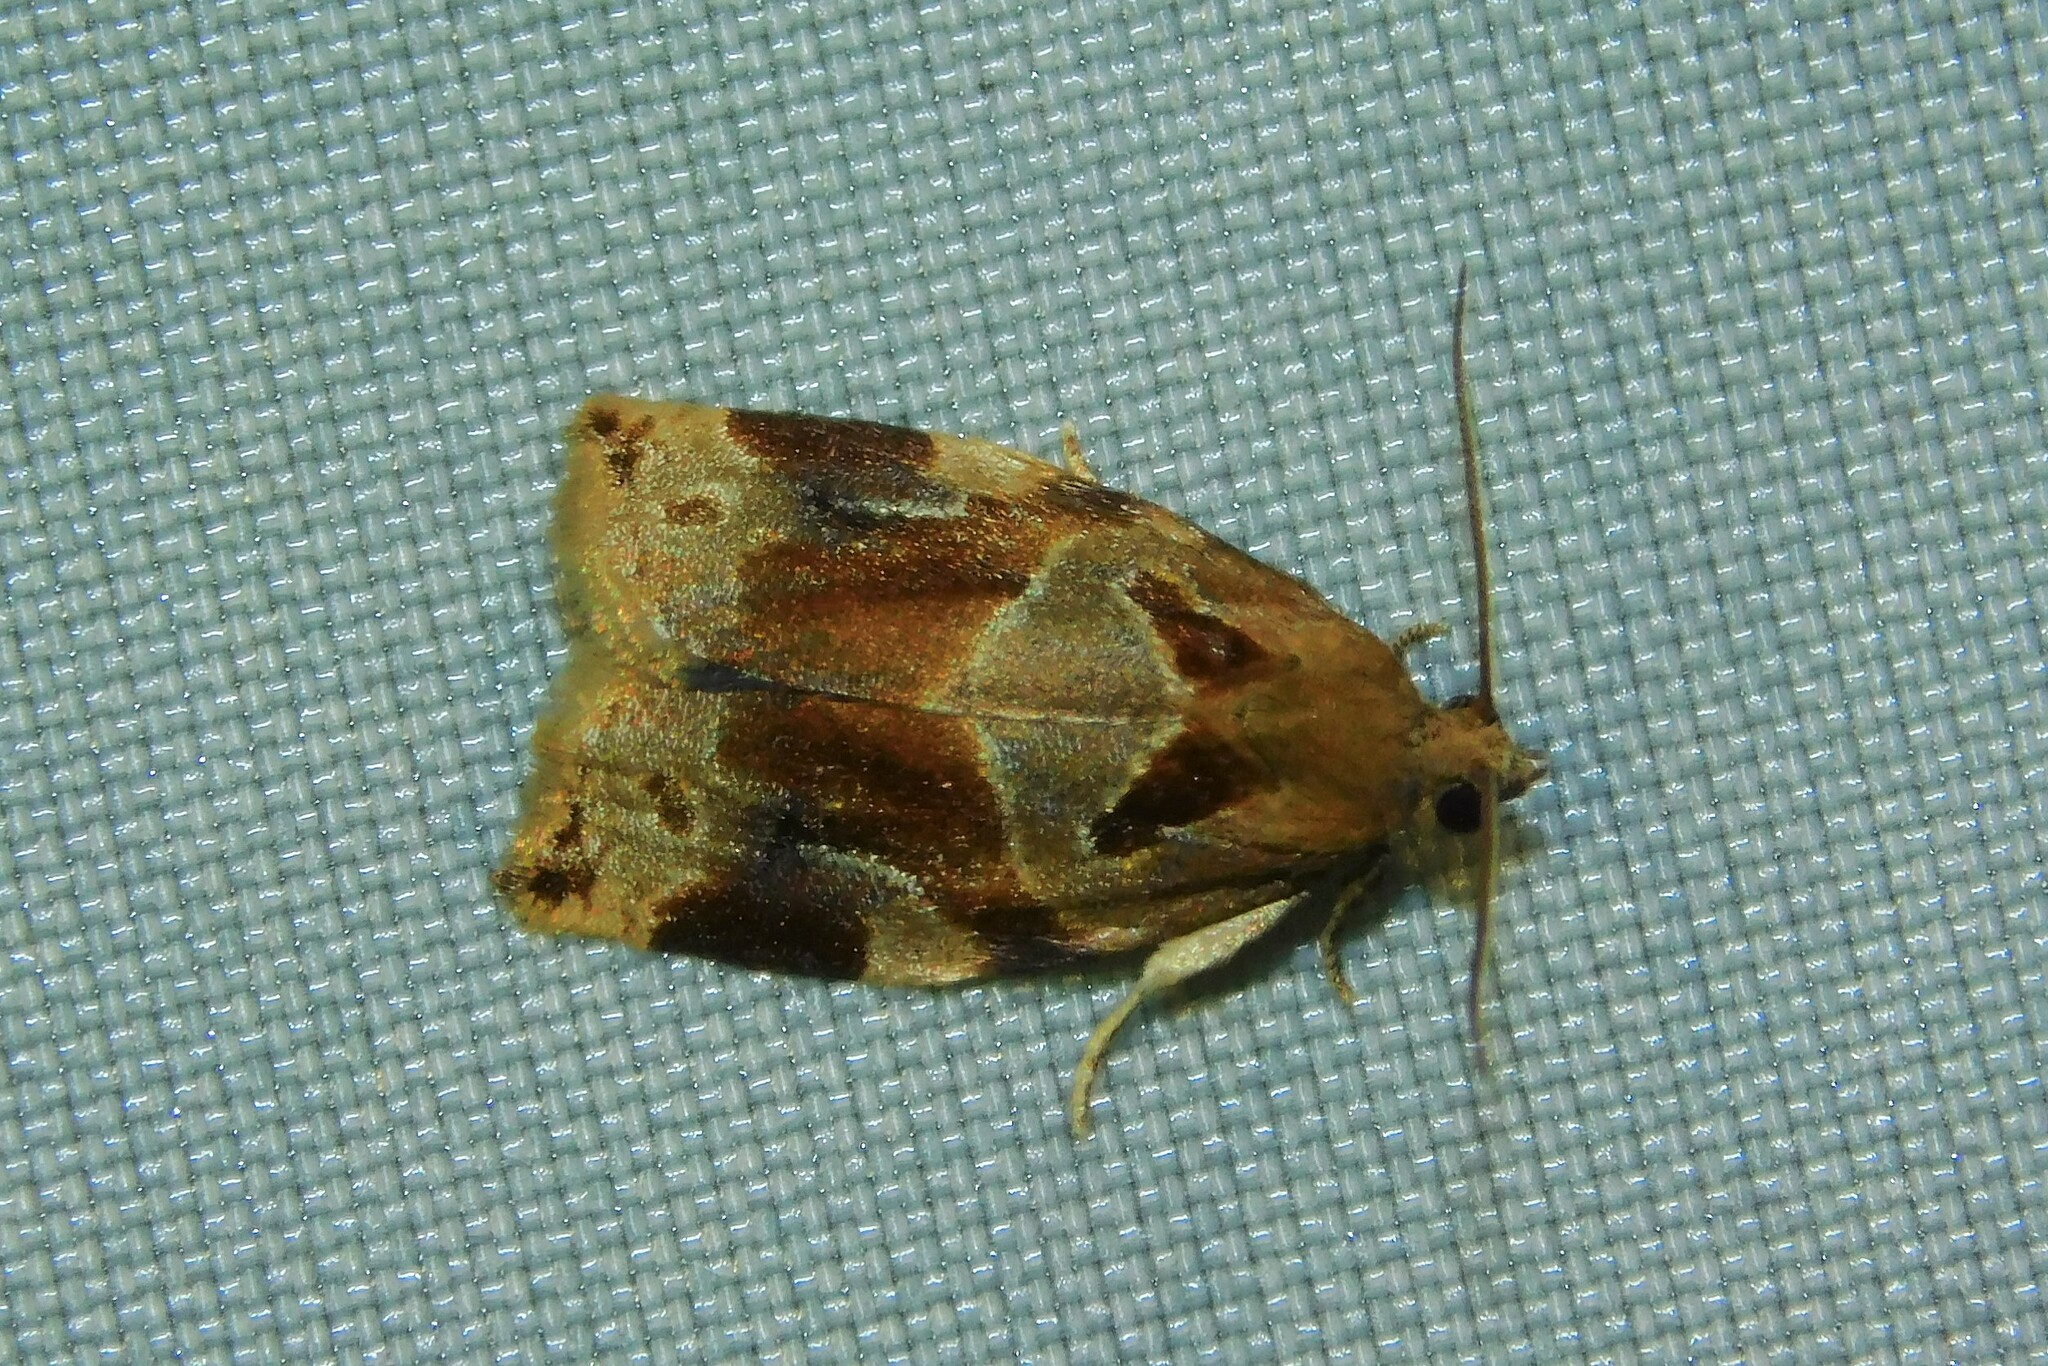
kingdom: Animalia
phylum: Arthropoda
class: Insecta
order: Lepidoptera
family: Tortricidae
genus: Archips
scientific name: Archips xylosteana
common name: Variegated golden tortrix
